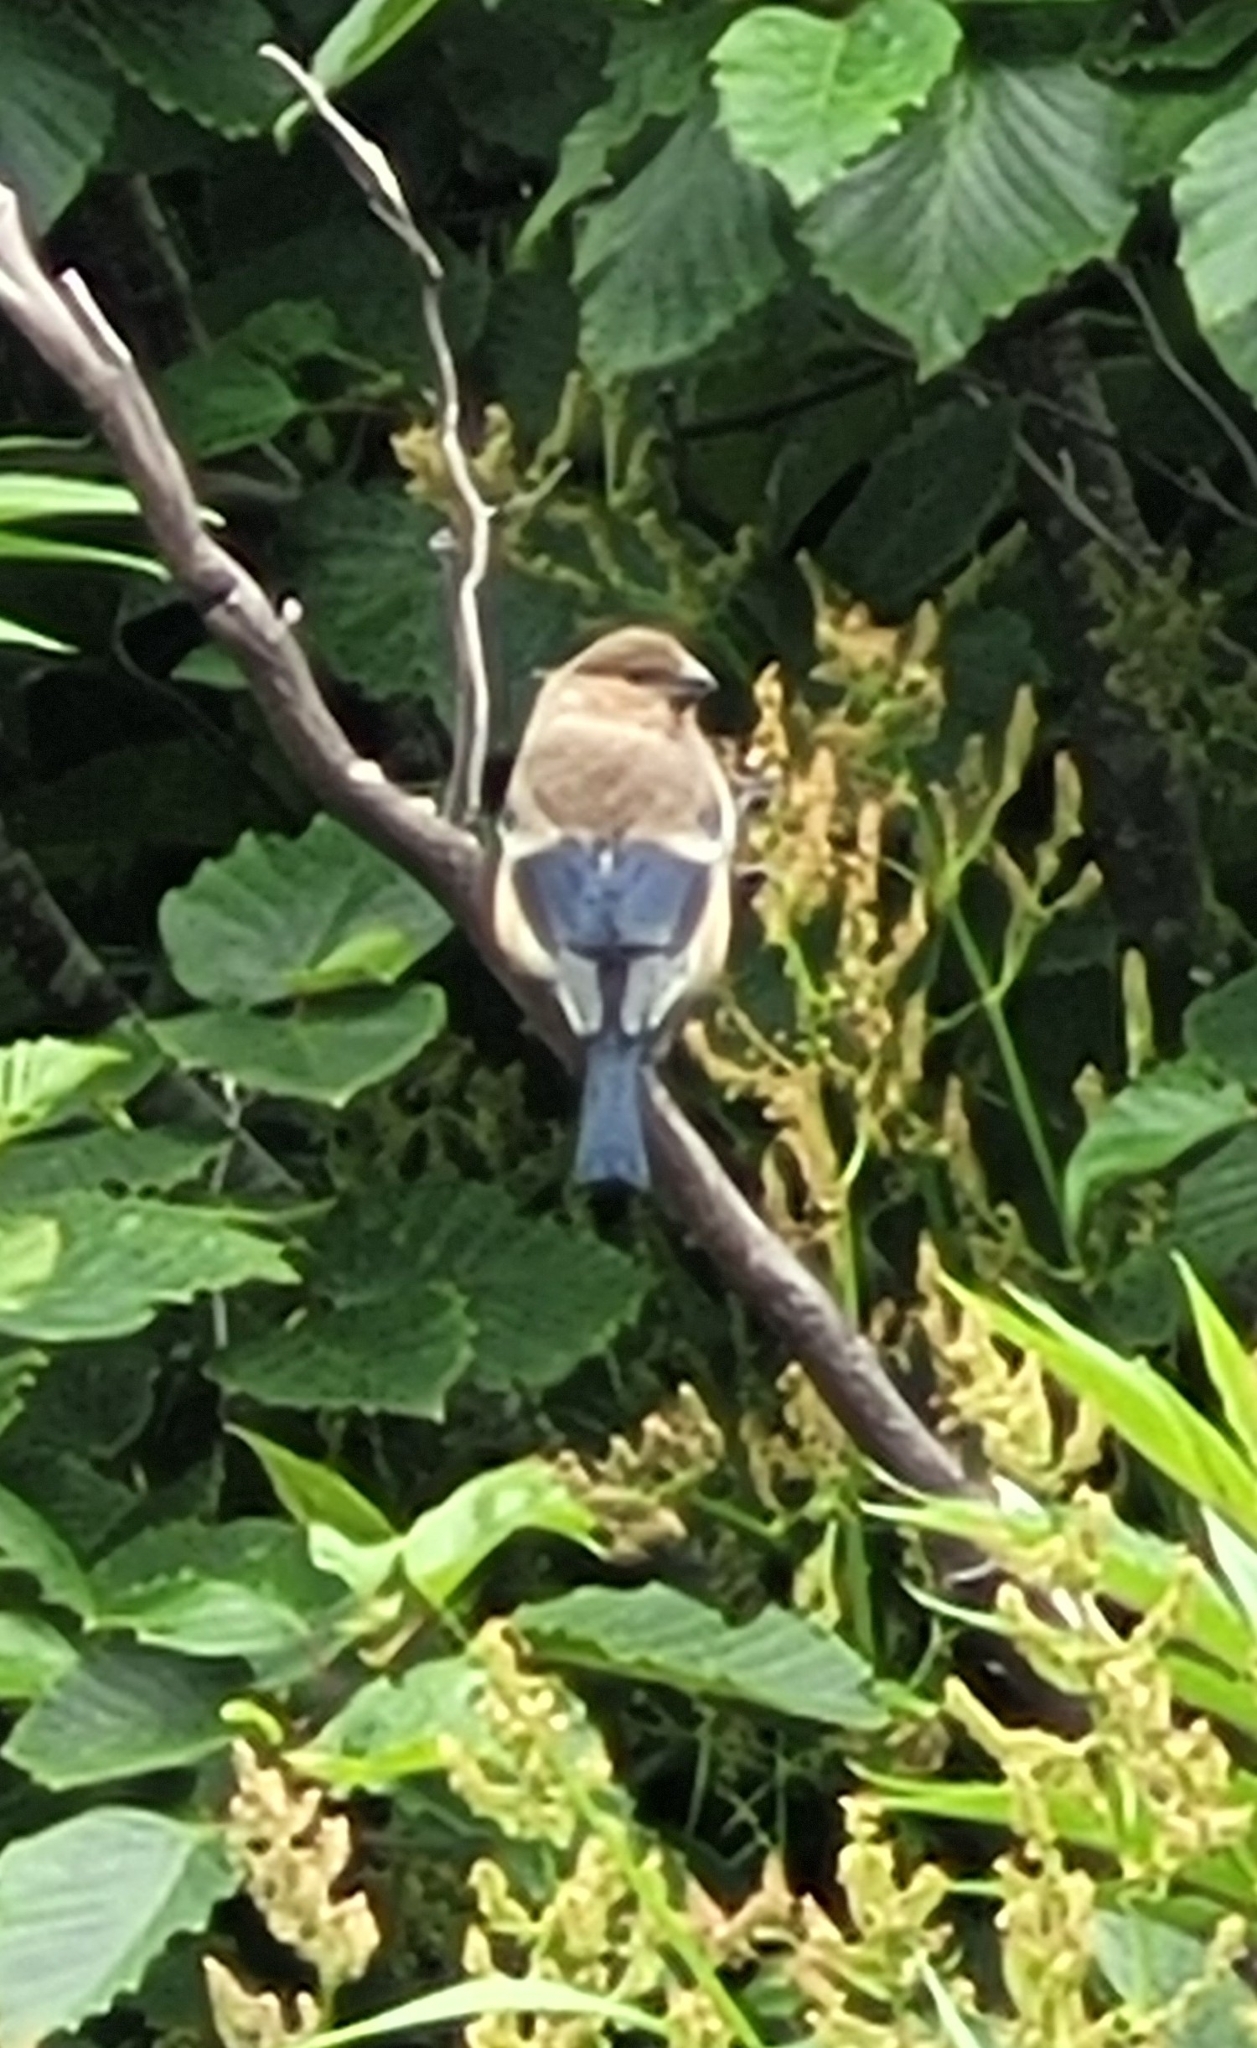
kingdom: Animalia
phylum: Chordata
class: Aves
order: Passeriformes
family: Fringillidae
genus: Pyrrhula
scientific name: Pyrrhula pyrrhula
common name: Eurasian bullfinch
